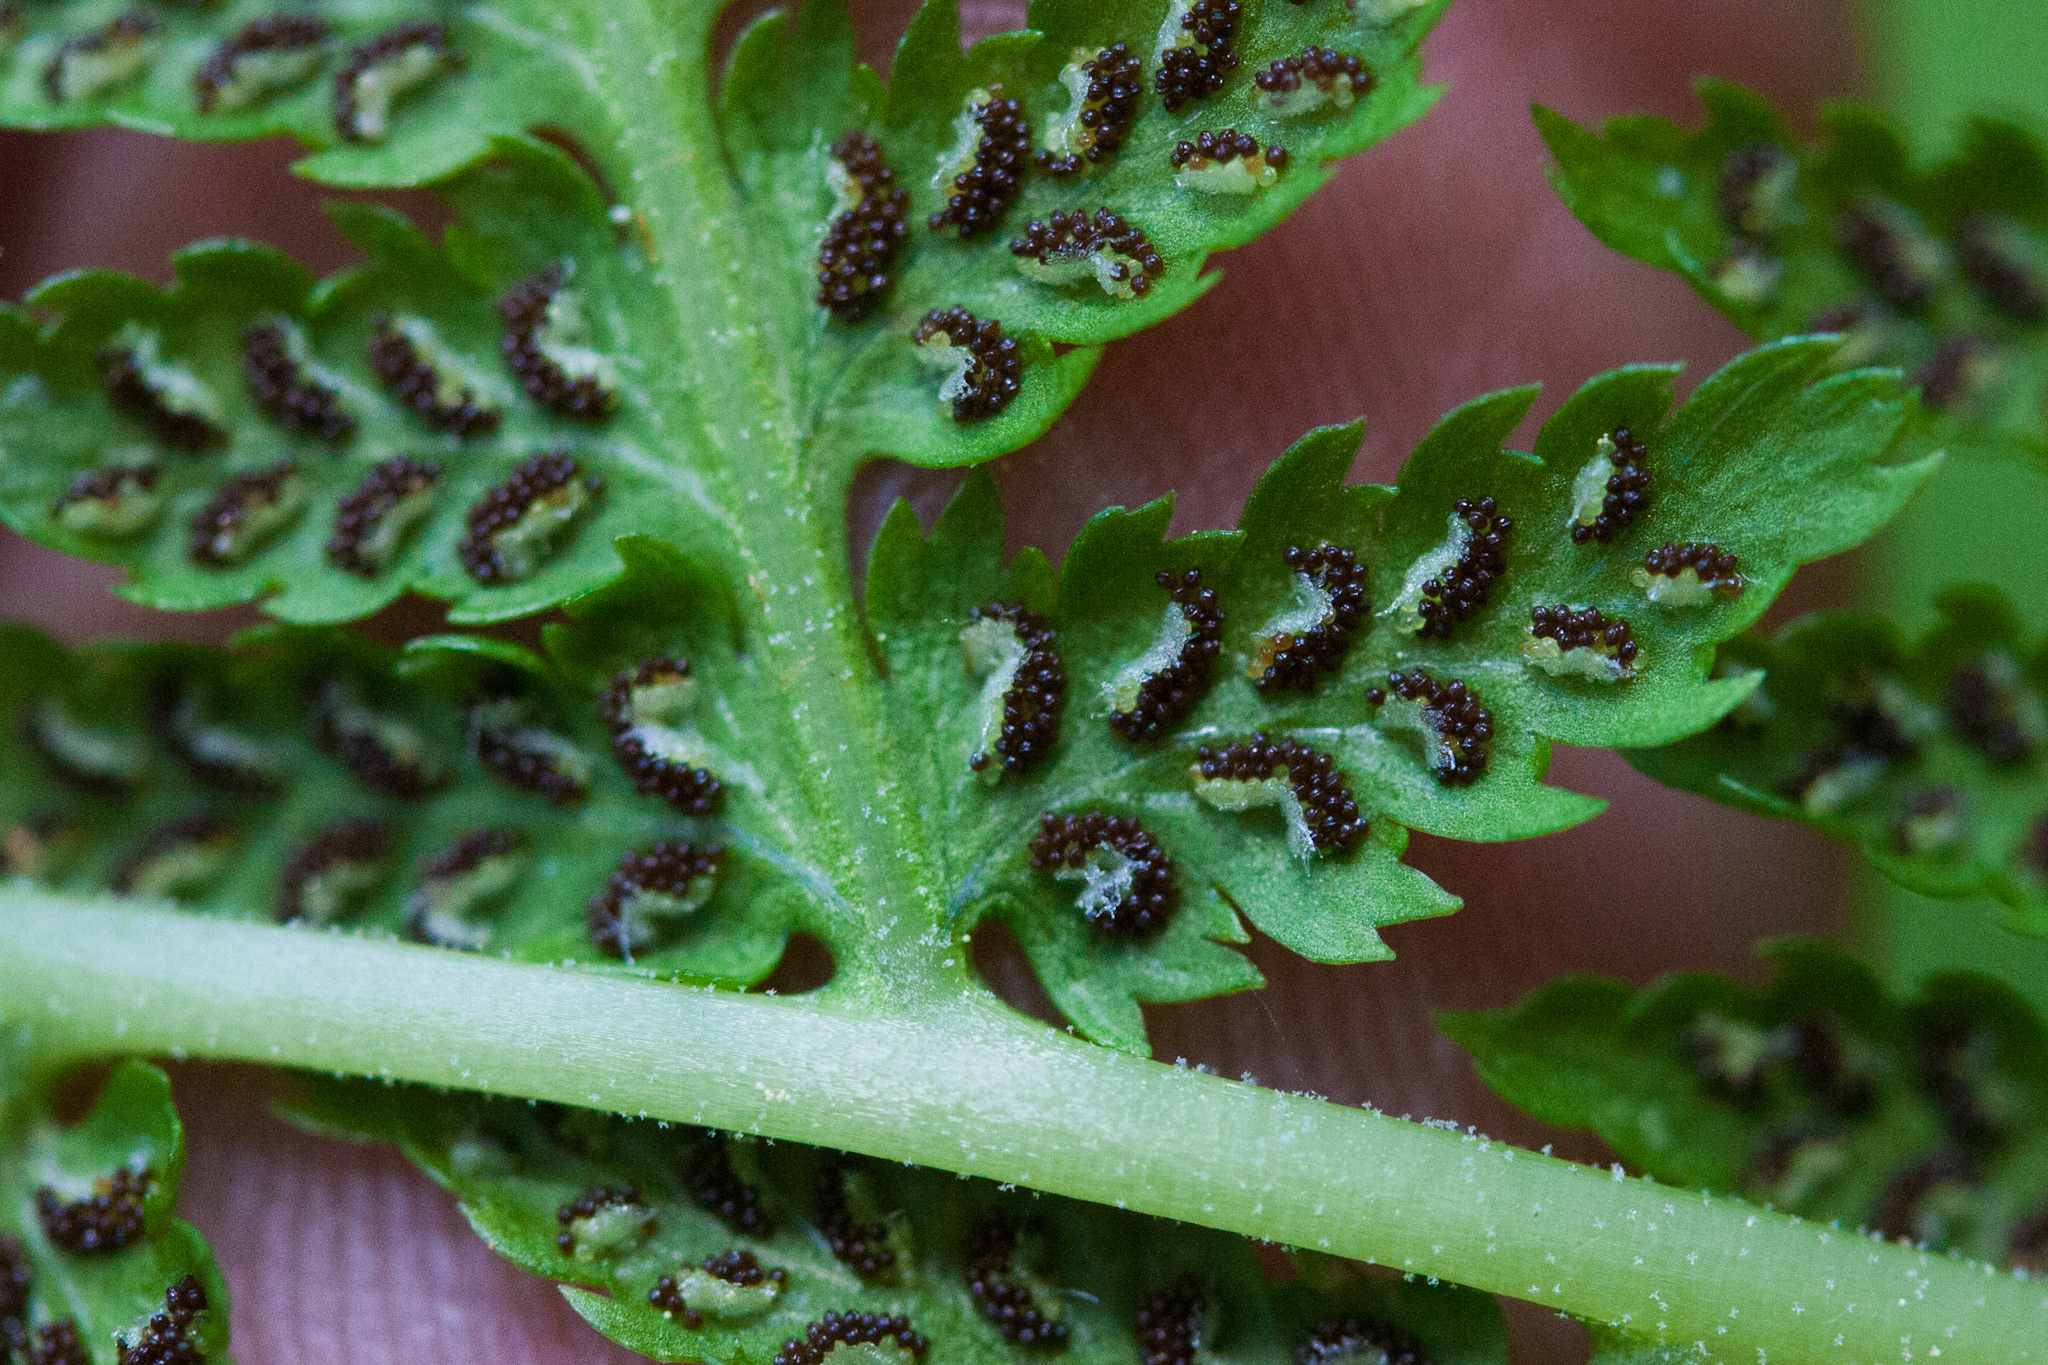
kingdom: Plantae
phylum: Tracheophyta
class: Polypodiopsida
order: Polypodiales
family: Athyriaceae
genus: Athyrium
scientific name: Athyrium filix-femina
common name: Lady fern
